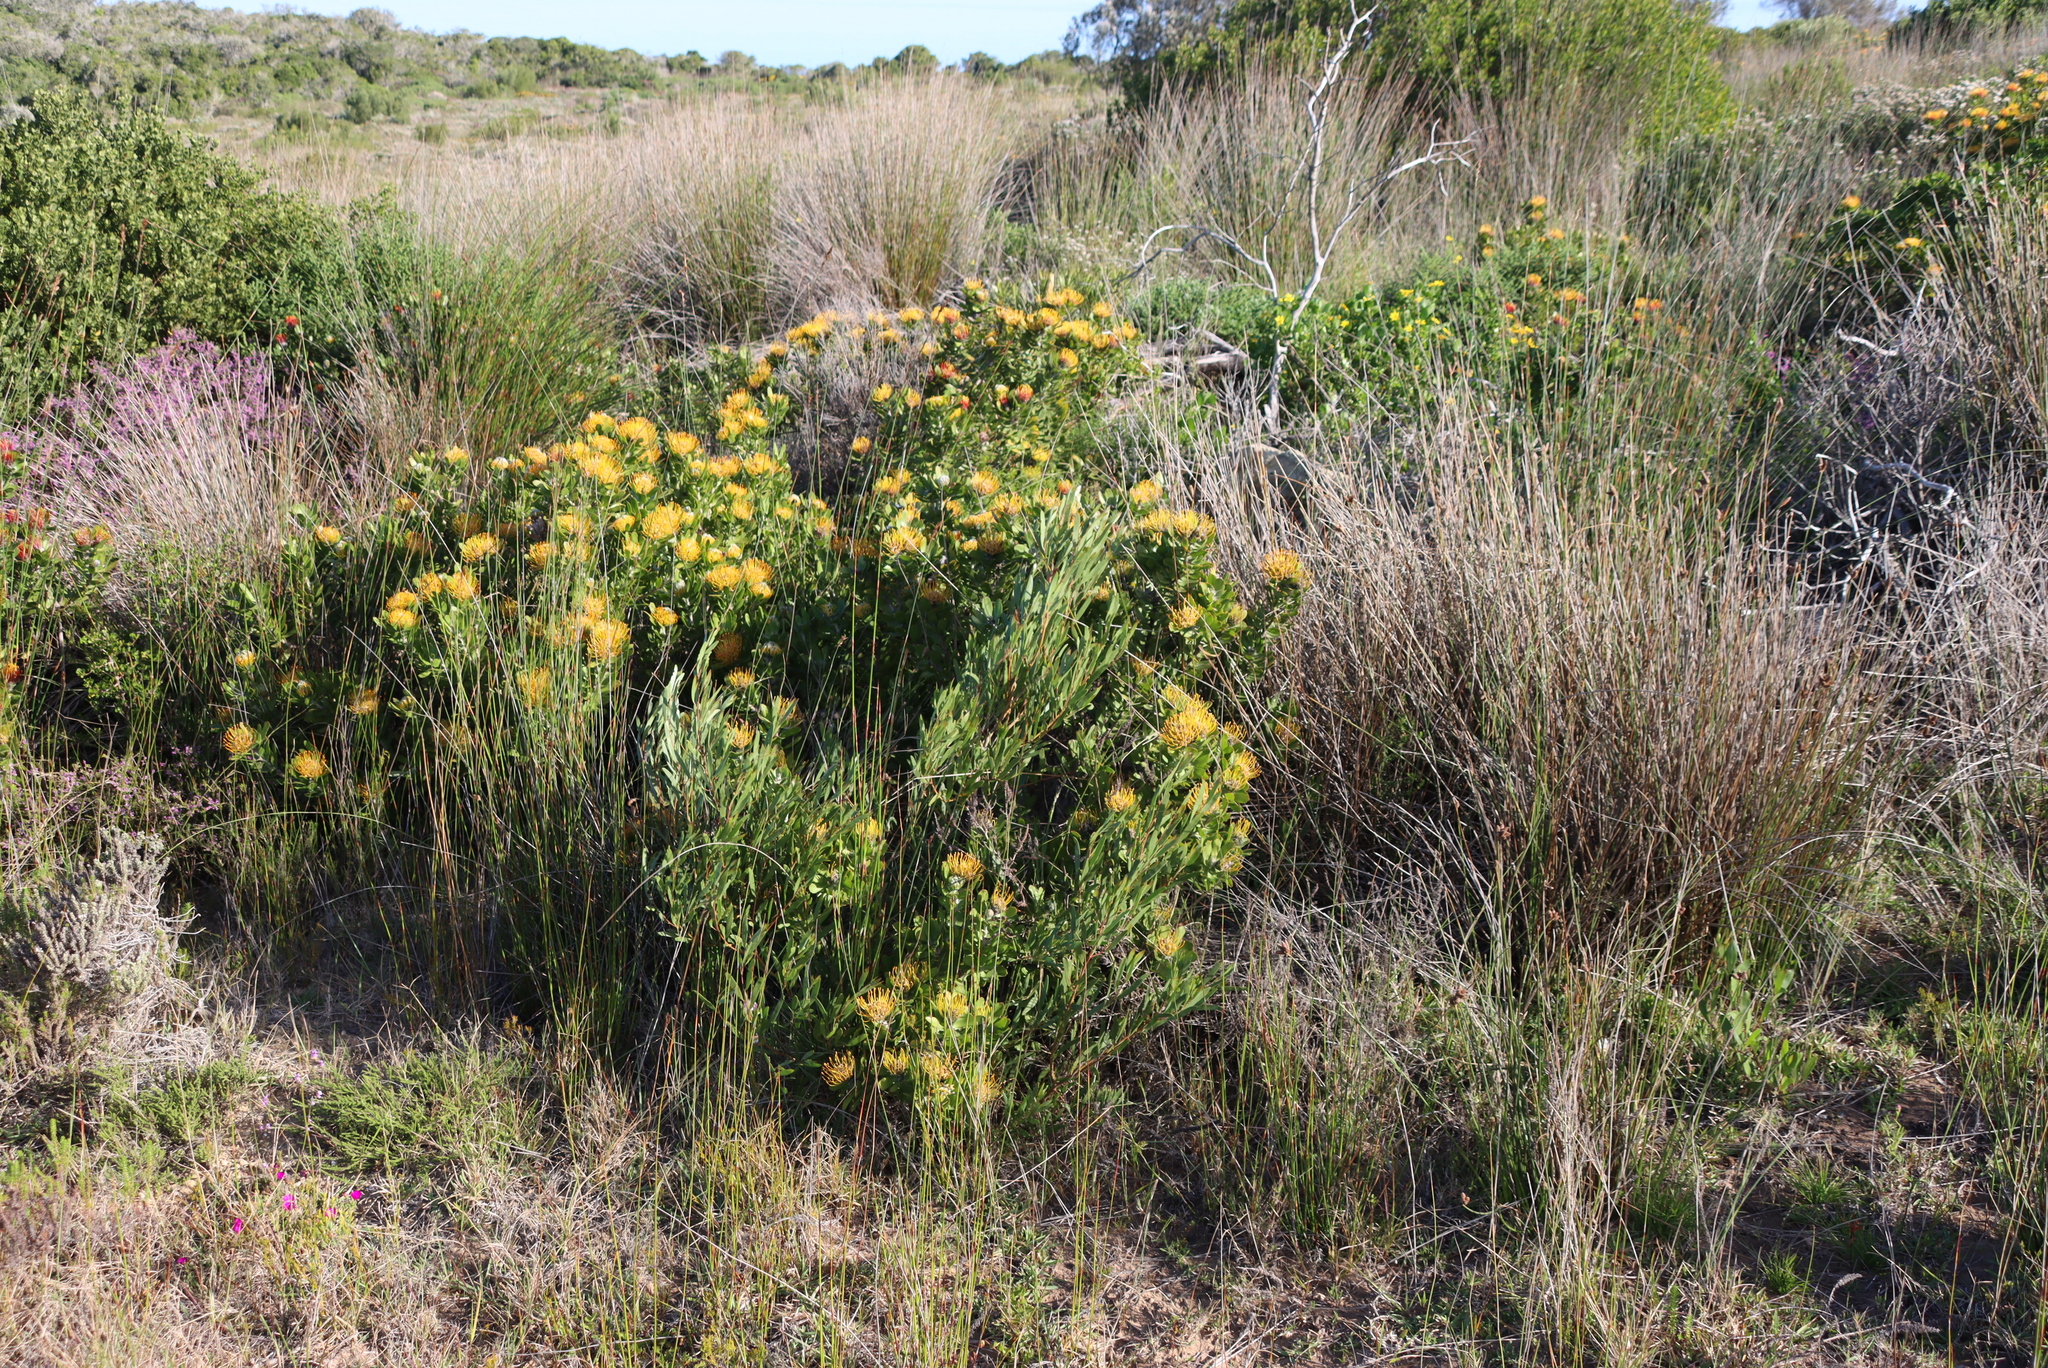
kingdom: Plantae
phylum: Tracheophyta
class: Magnoliopsida
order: Fabales
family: Fabaceae
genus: Acacia
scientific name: Acacia cyclops
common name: Coastal wattle
